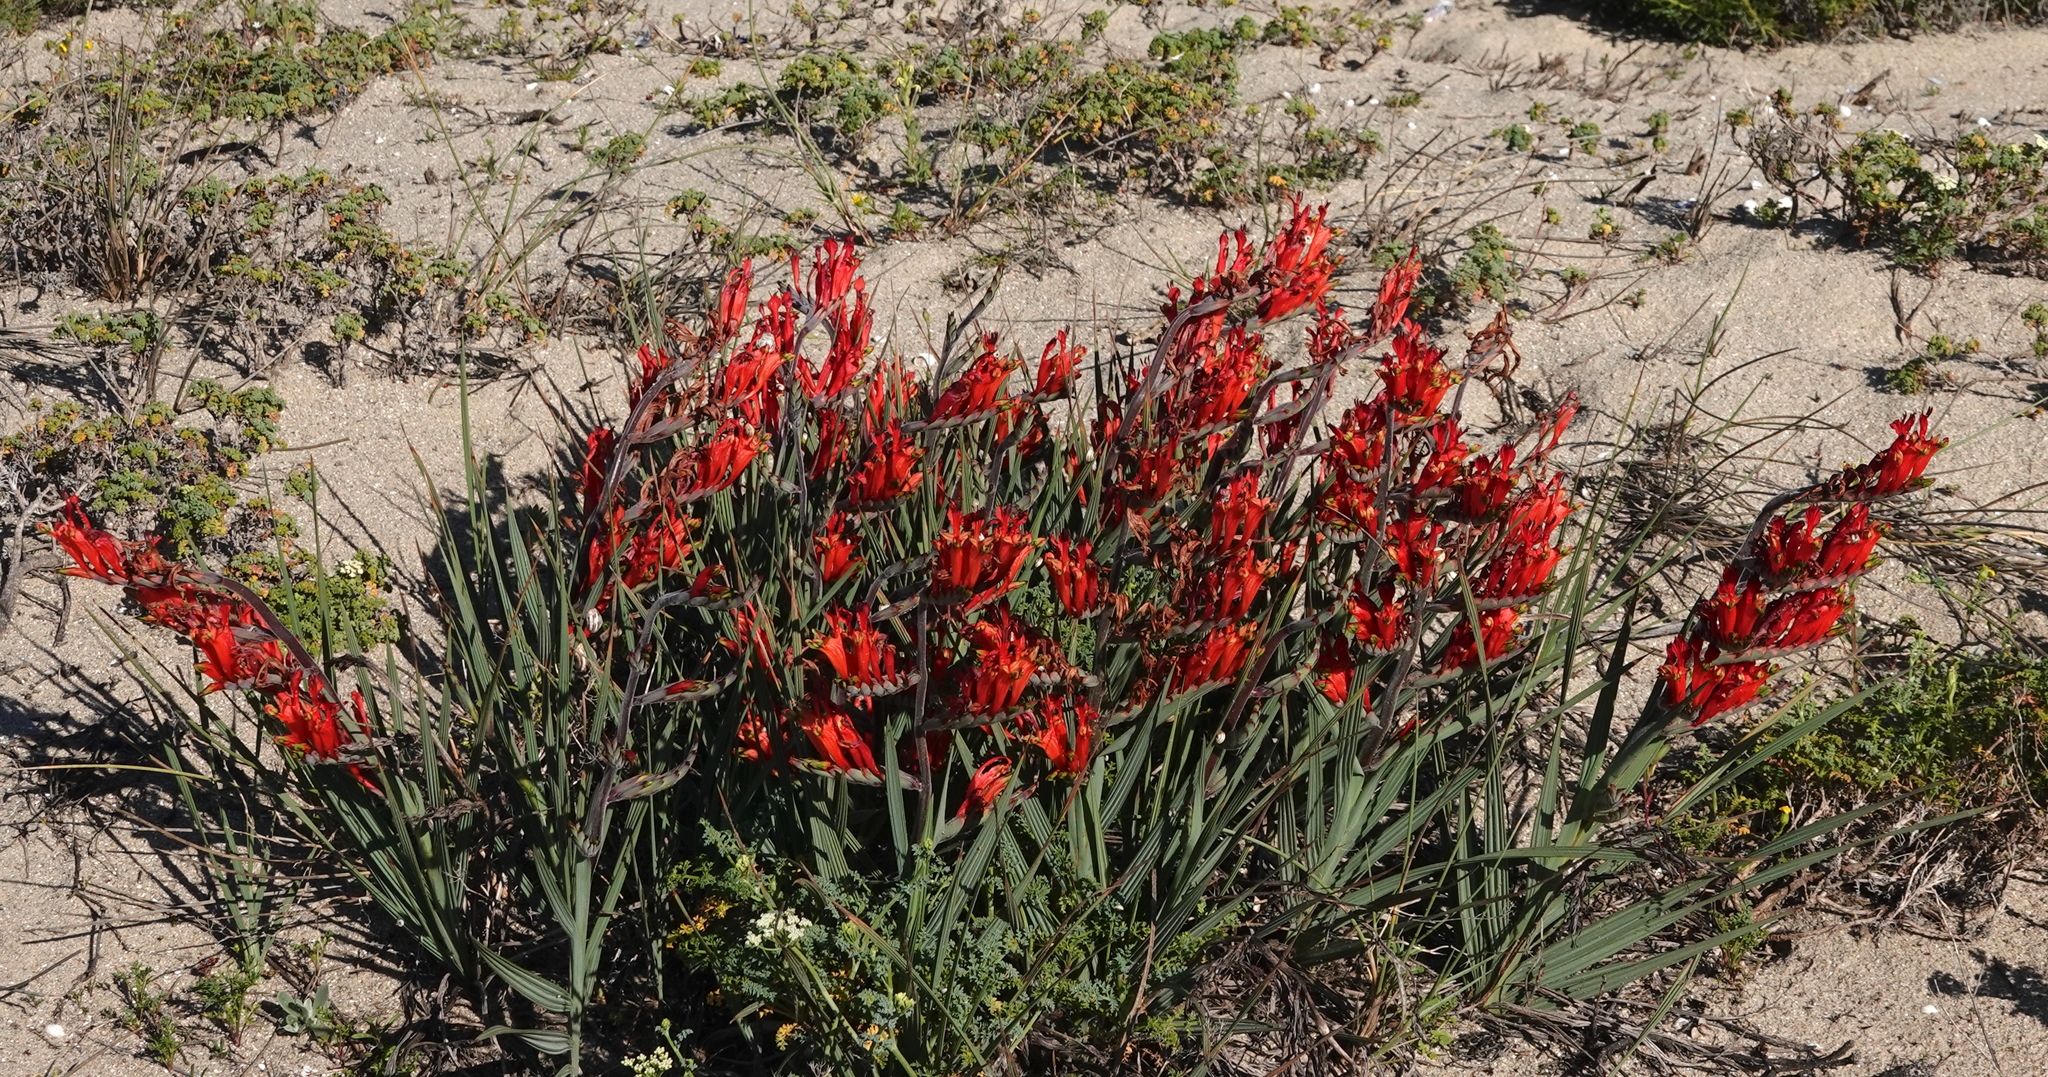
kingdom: Plantae
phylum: Tracheophyta
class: Liliopsida
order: Asparagales
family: Iridaceae
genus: Babiana
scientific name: Babiana hirsuta
